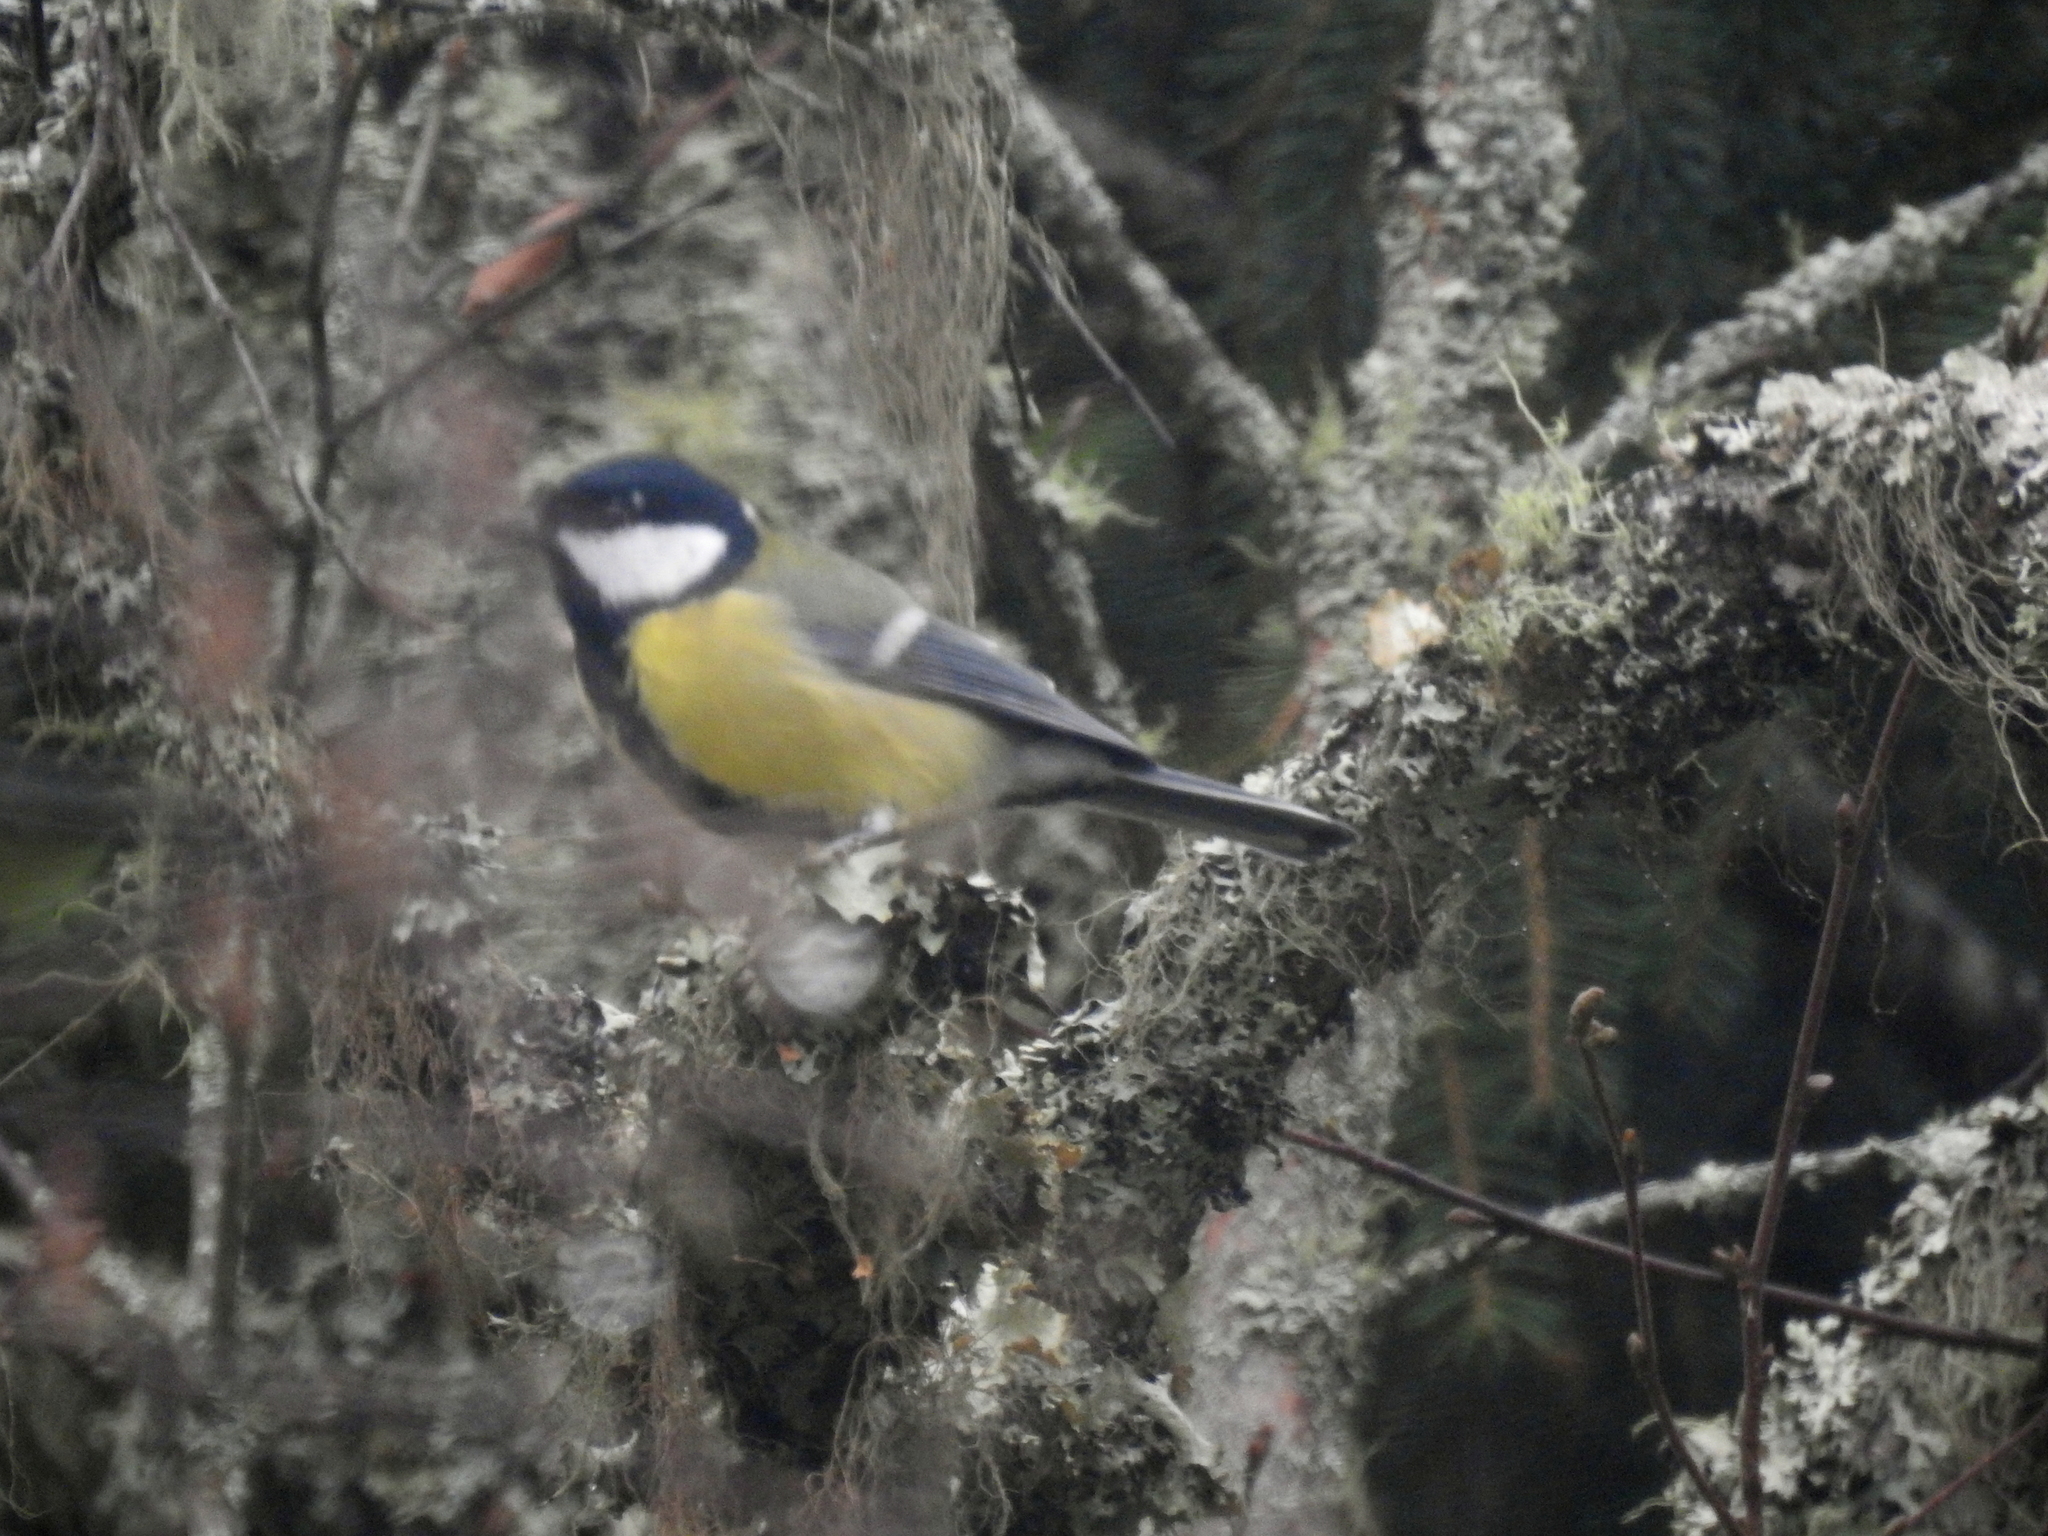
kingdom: Animalia
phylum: Chordata
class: Aves
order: Passeriformes
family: Paridae
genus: Parus
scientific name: Parus major
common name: Great tit
